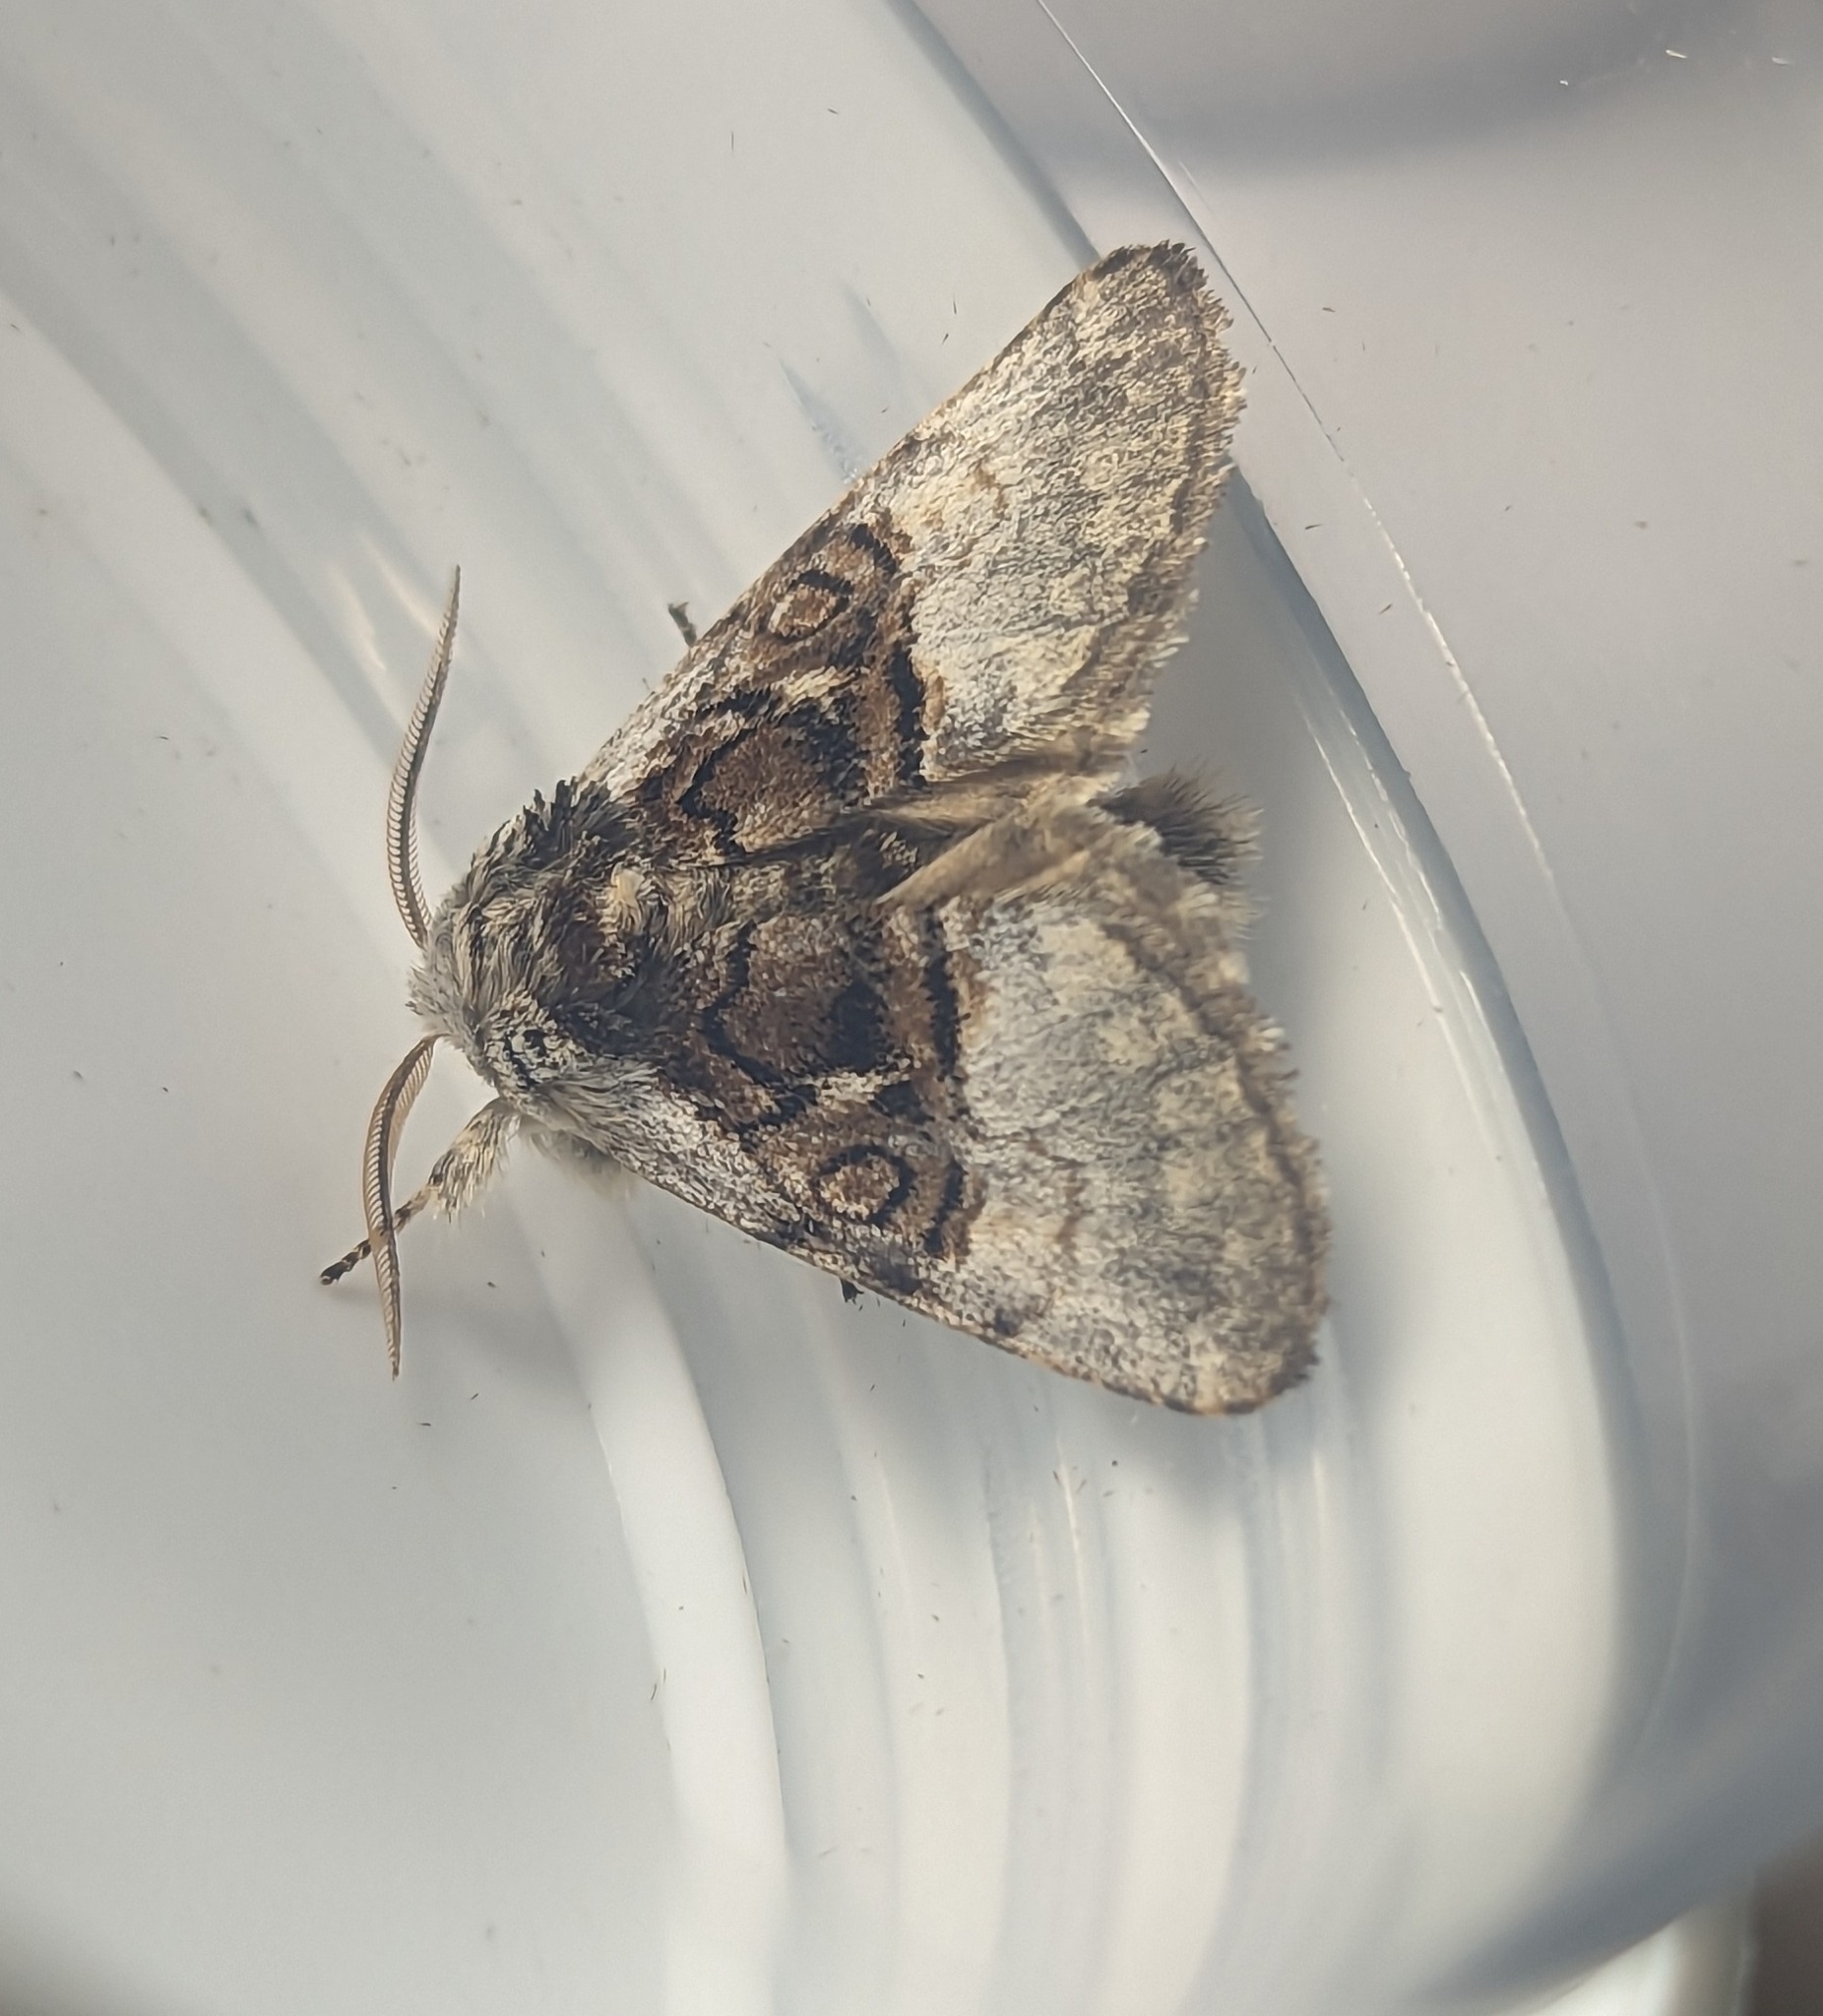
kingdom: Animalia
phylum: Arthropoda
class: Insecta
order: Lepidoptera
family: Noctuidae
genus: Colocasia
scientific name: Colocasia coryli
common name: Nut-tree tussock
